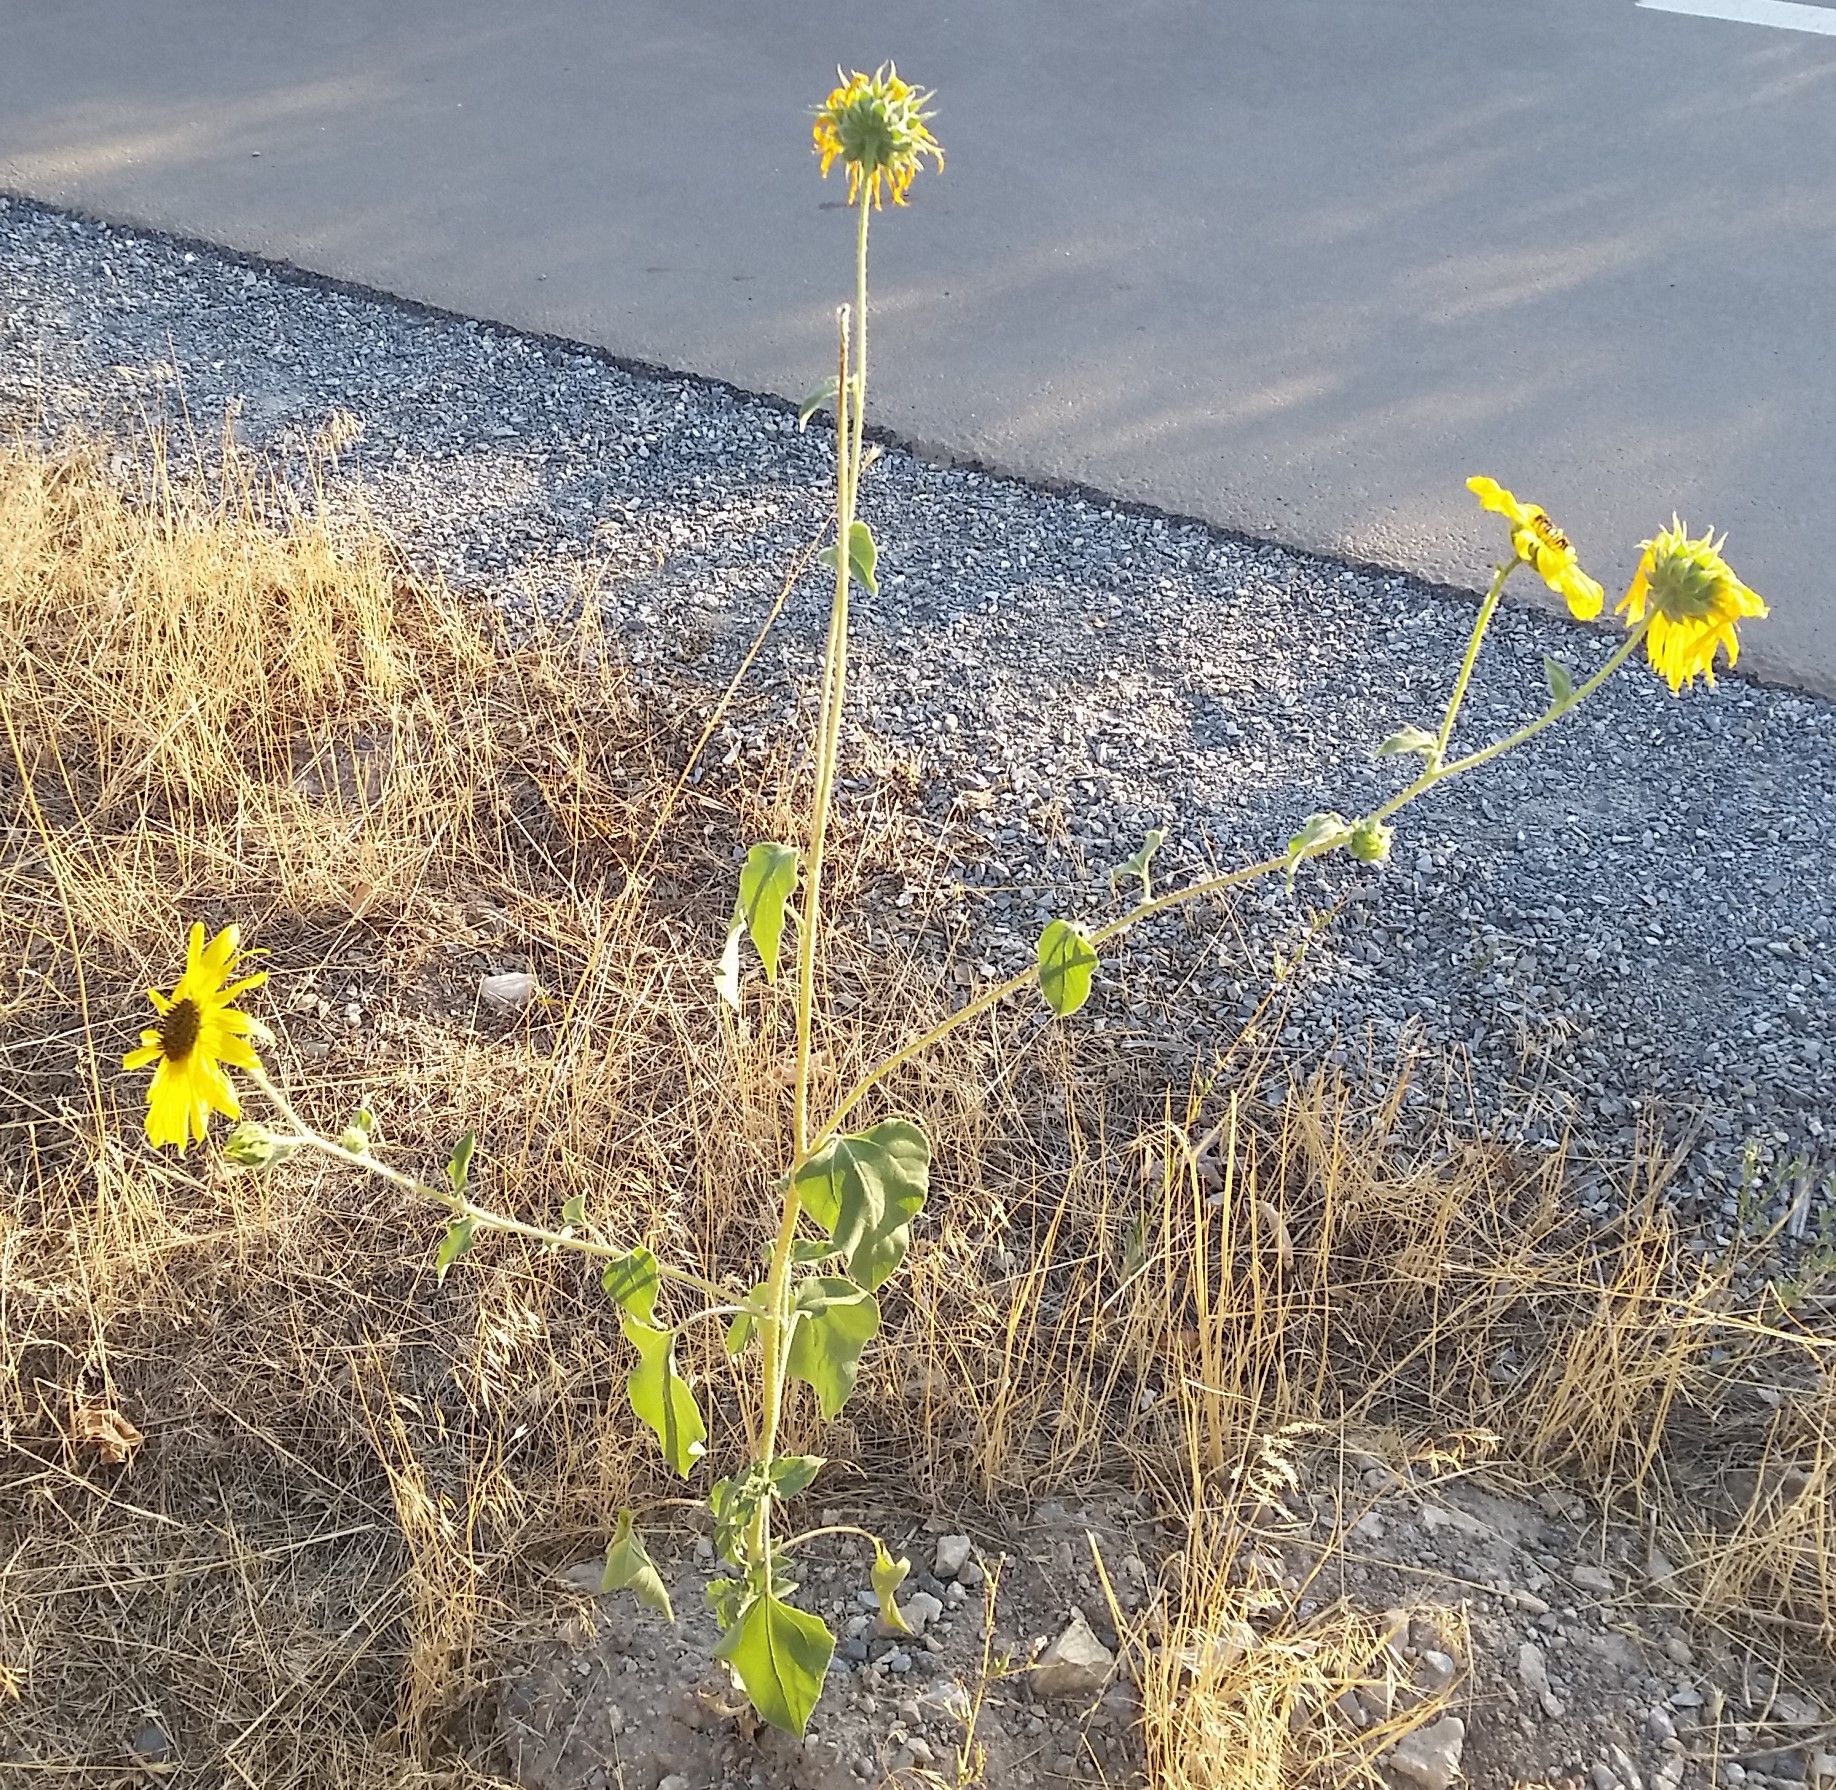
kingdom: Plantae
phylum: Tracheophyta
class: Magnoliopsida
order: Asterales
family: Asteraceae
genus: Helianthus
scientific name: Helianthus annuus
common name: Sunflower
